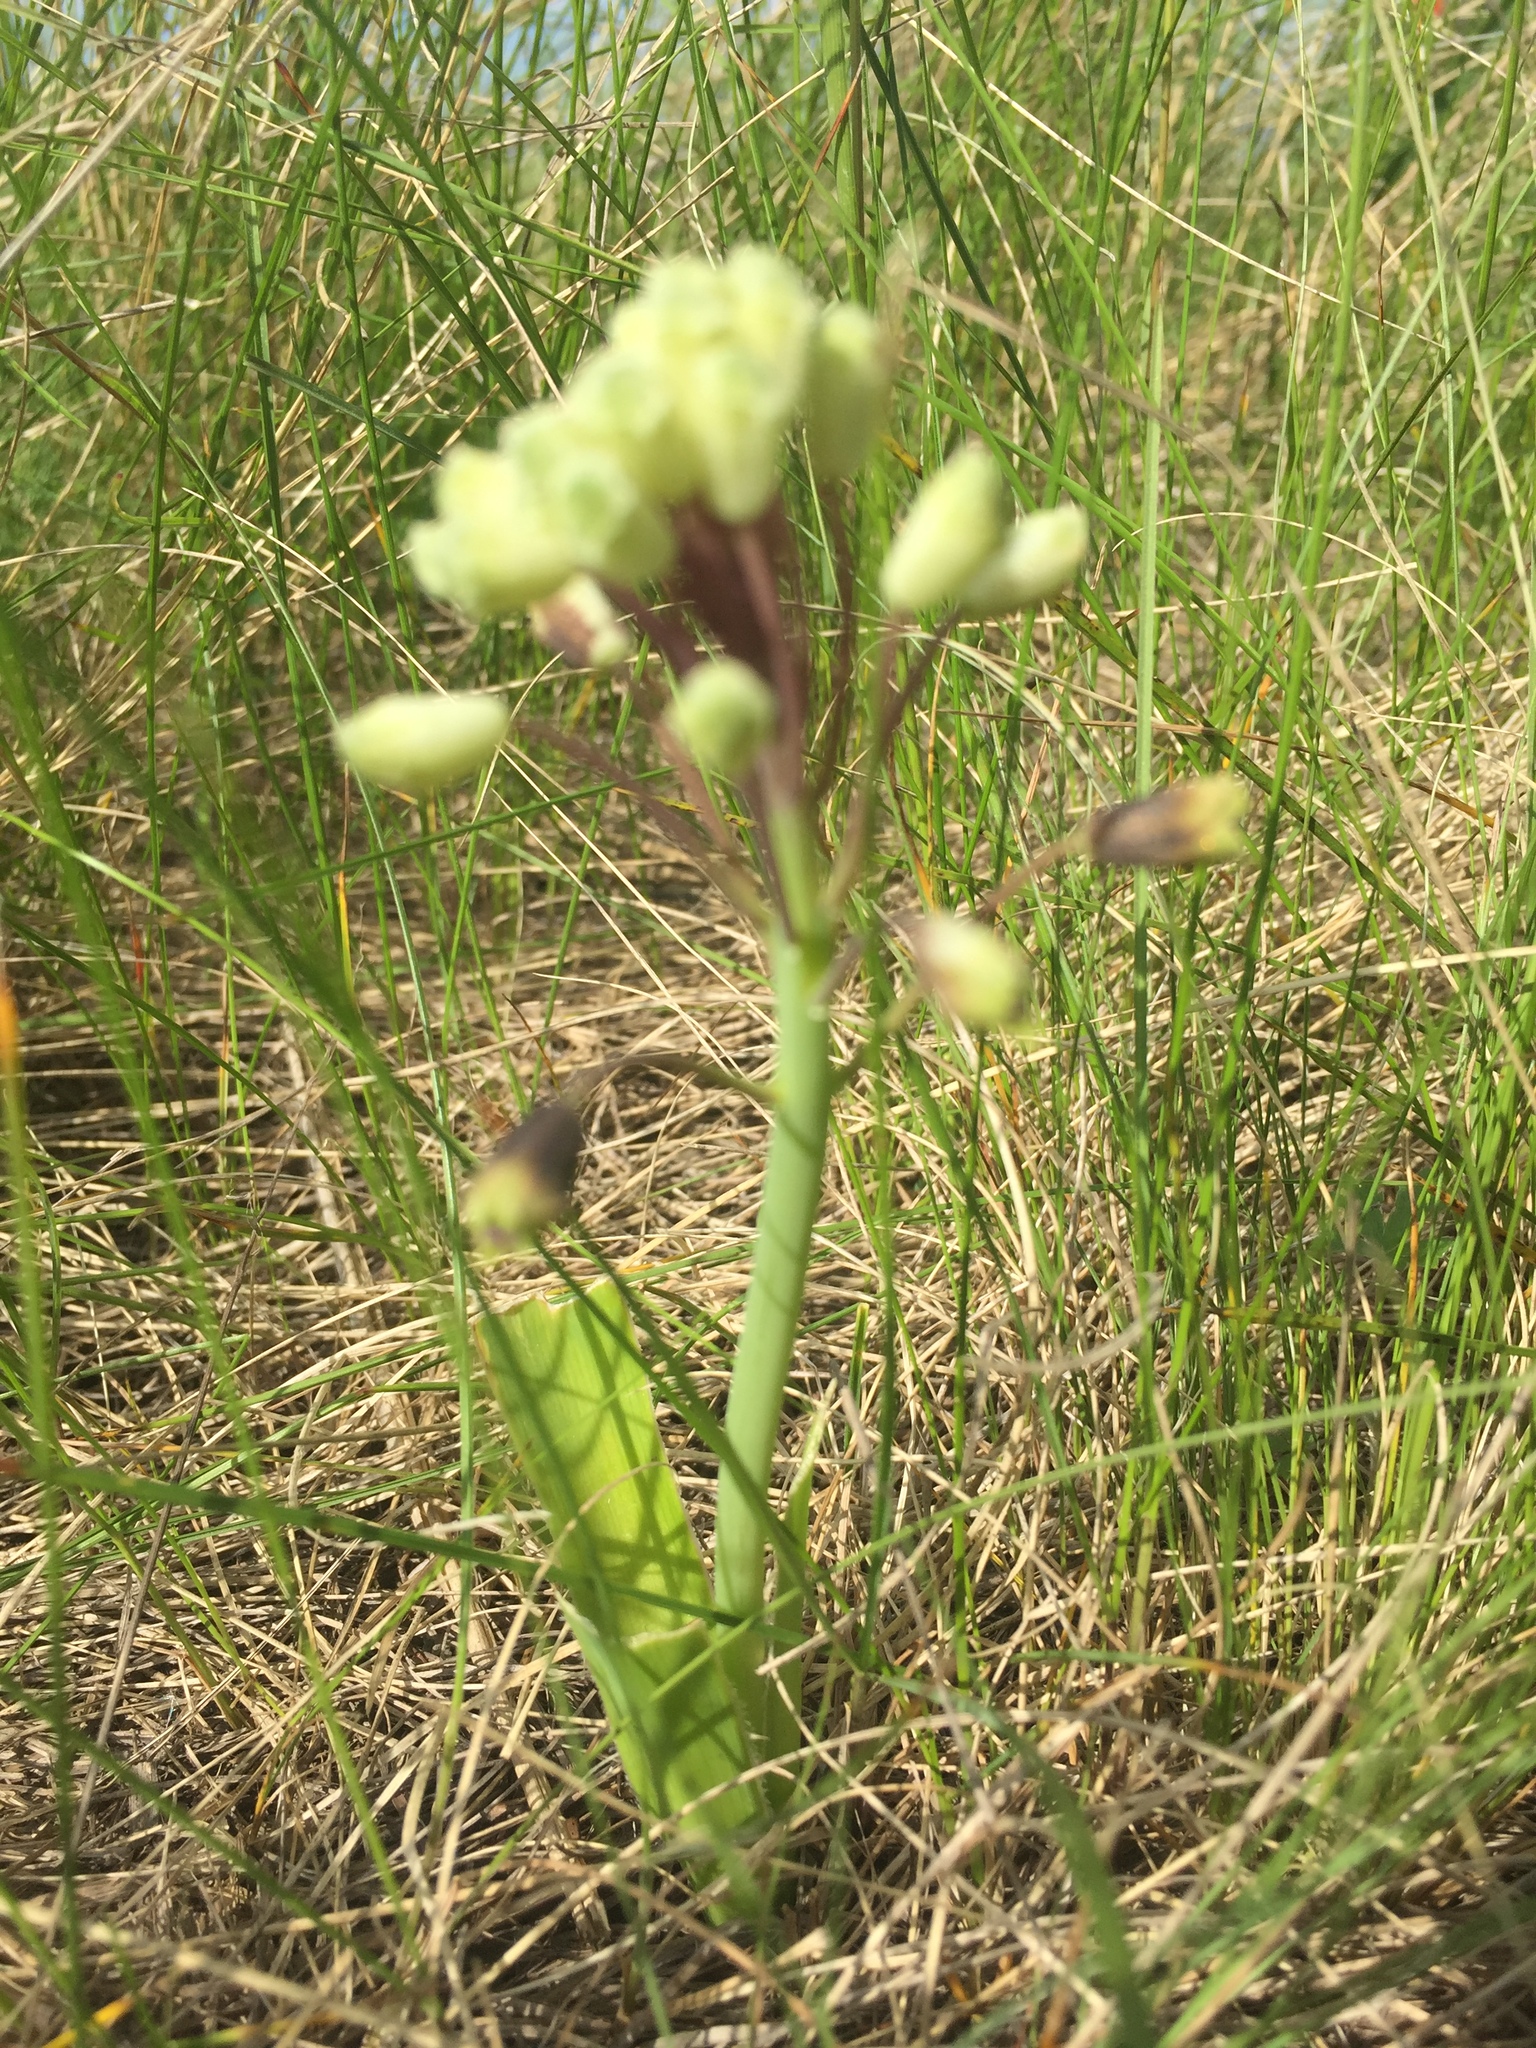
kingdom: Plantae
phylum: Tracheophyta
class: Liliopsida
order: Asparagales
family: Asparagaceae
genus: Bellevalia
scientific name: Bellevalia speciosa
